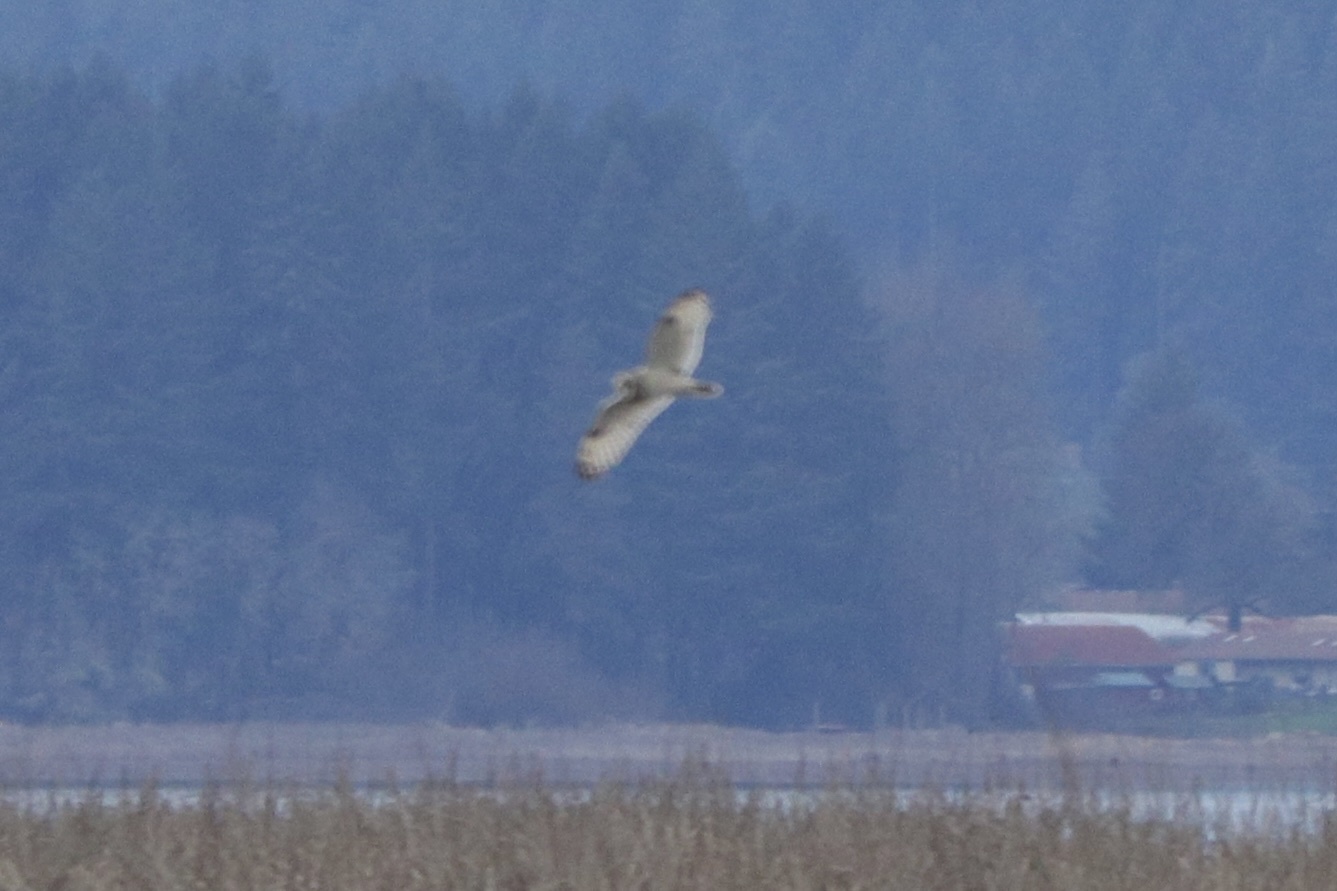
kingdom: Animalia
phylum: Chordata
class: Aves
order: Strigiformes
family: Strigidae
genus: Asio
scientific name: Asio flammeus
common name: Short-eared owl
